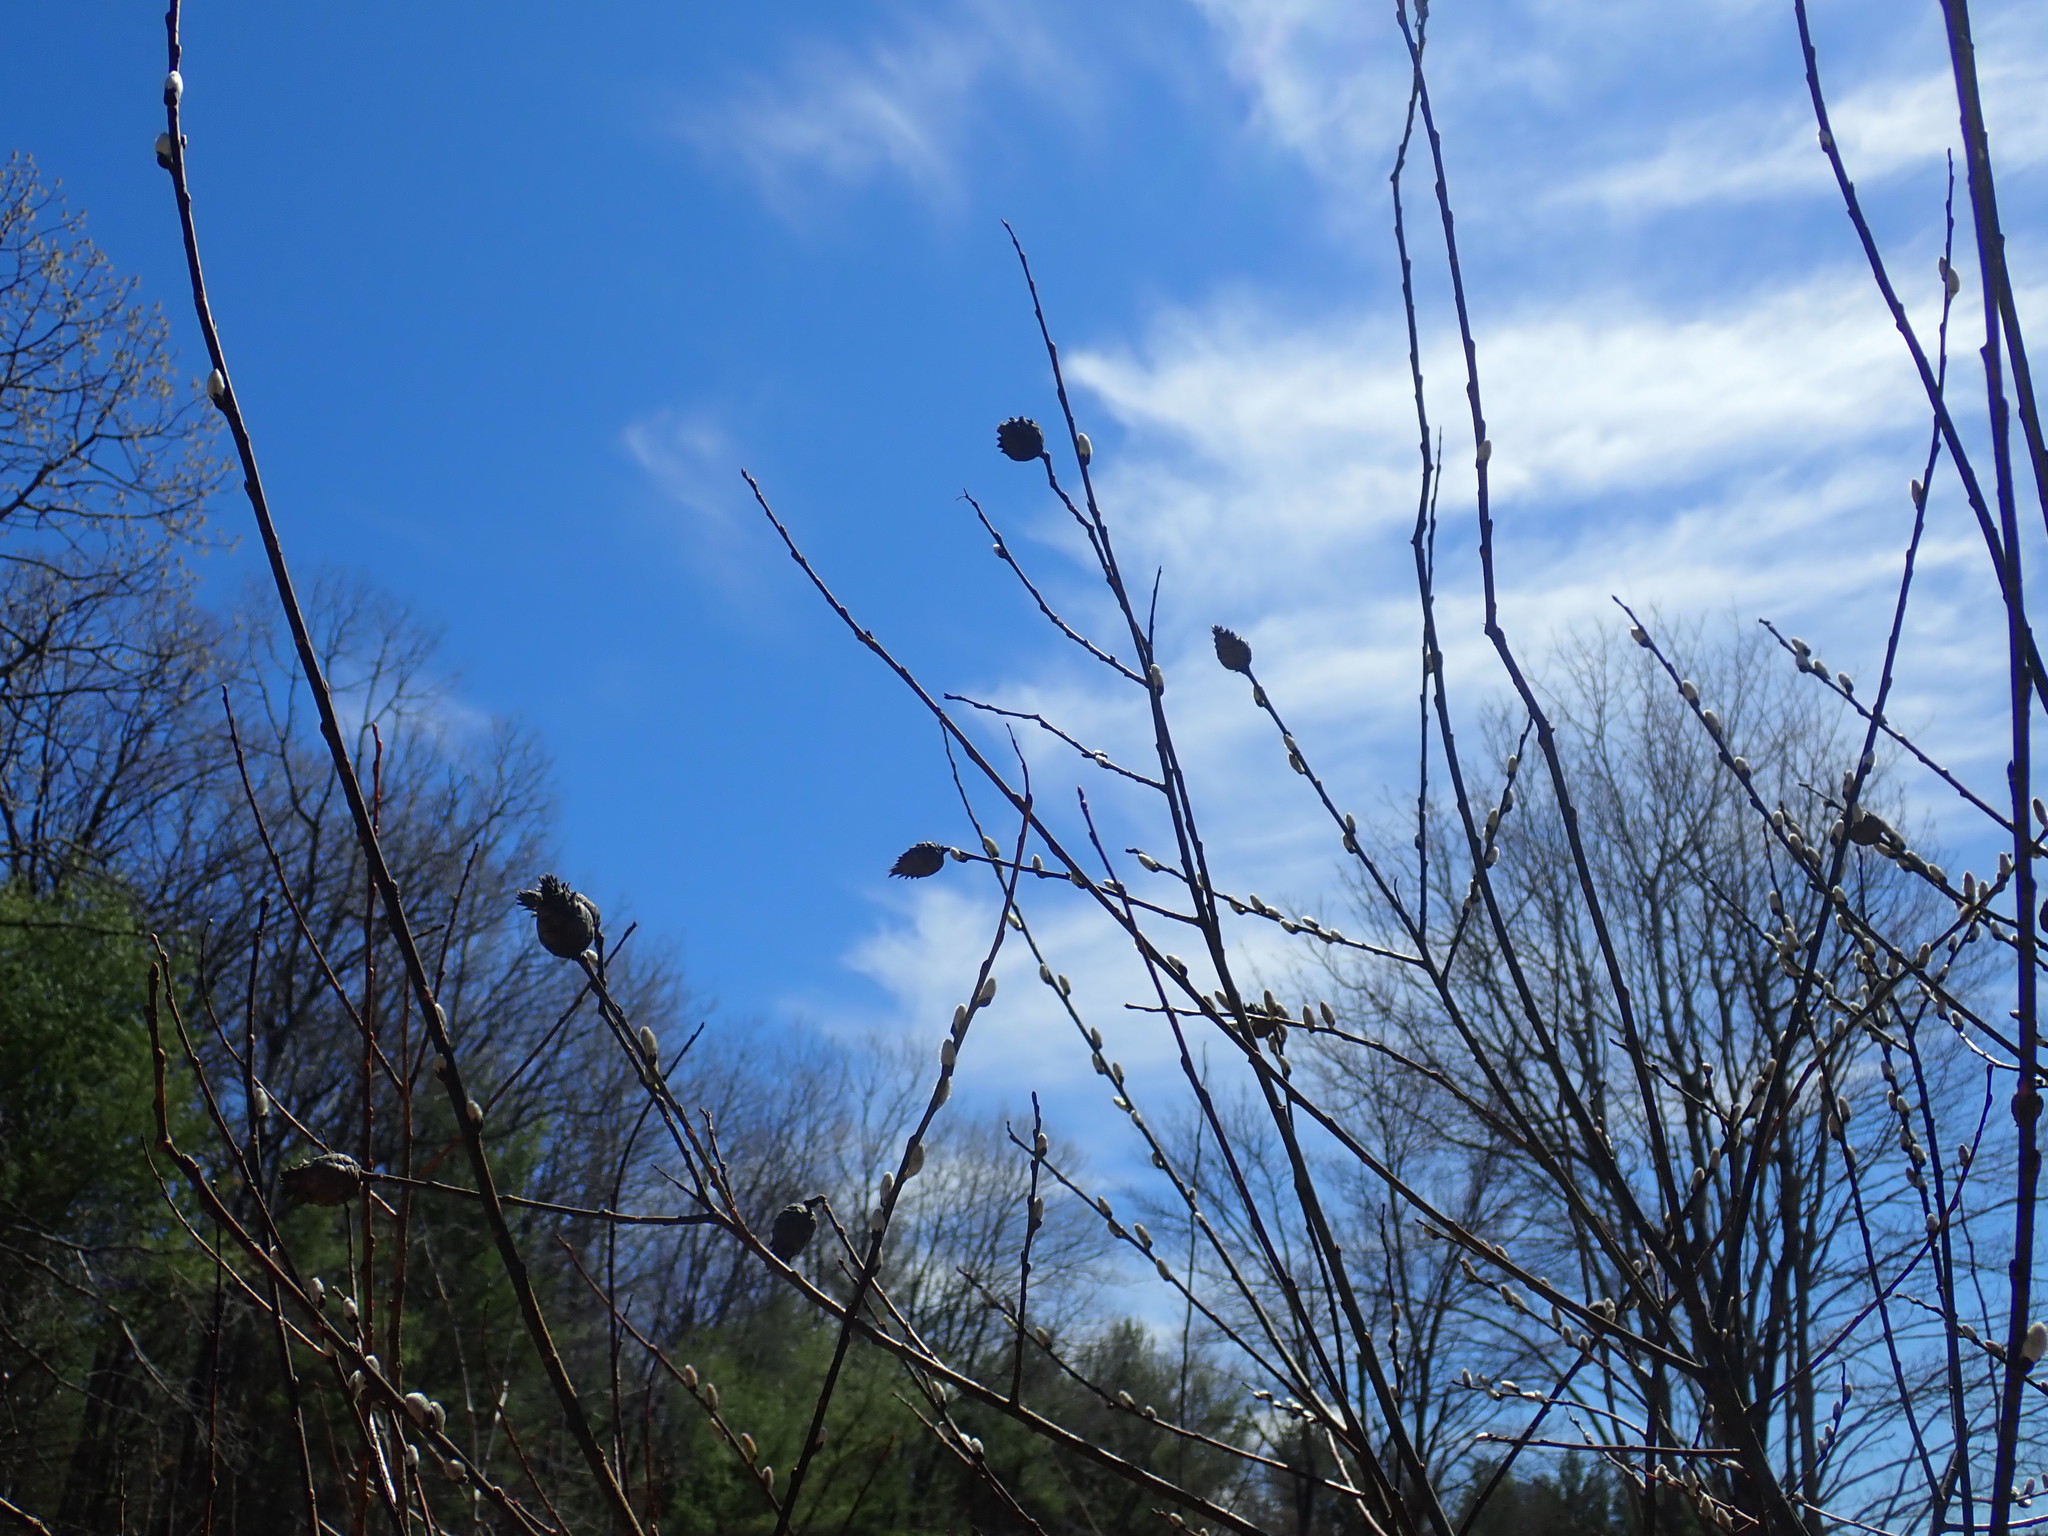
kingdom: Animalia
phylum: Arthropoda
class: Insecta
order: Diptera
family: Cecidomyiidae
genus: Rabdophaga
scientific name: Rabdophaga strobiloides
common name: Willow pinecone gall midge
